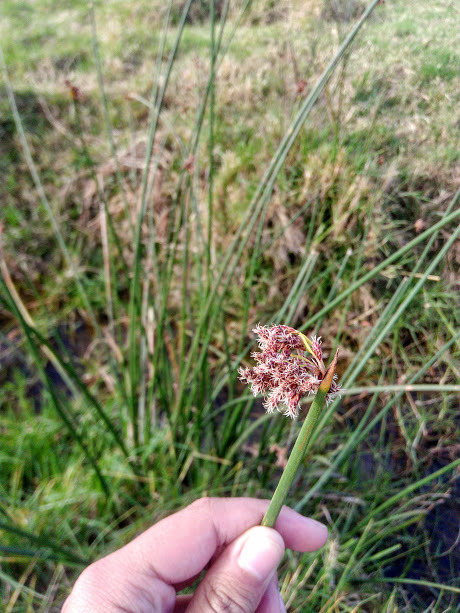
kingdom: Plantae
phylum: Tracheophyta
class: Liliopsida
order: Poales
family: Cyperaceae
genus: Schoenoplectus
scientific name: Schoenoplectus californicus
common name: California bulrush
